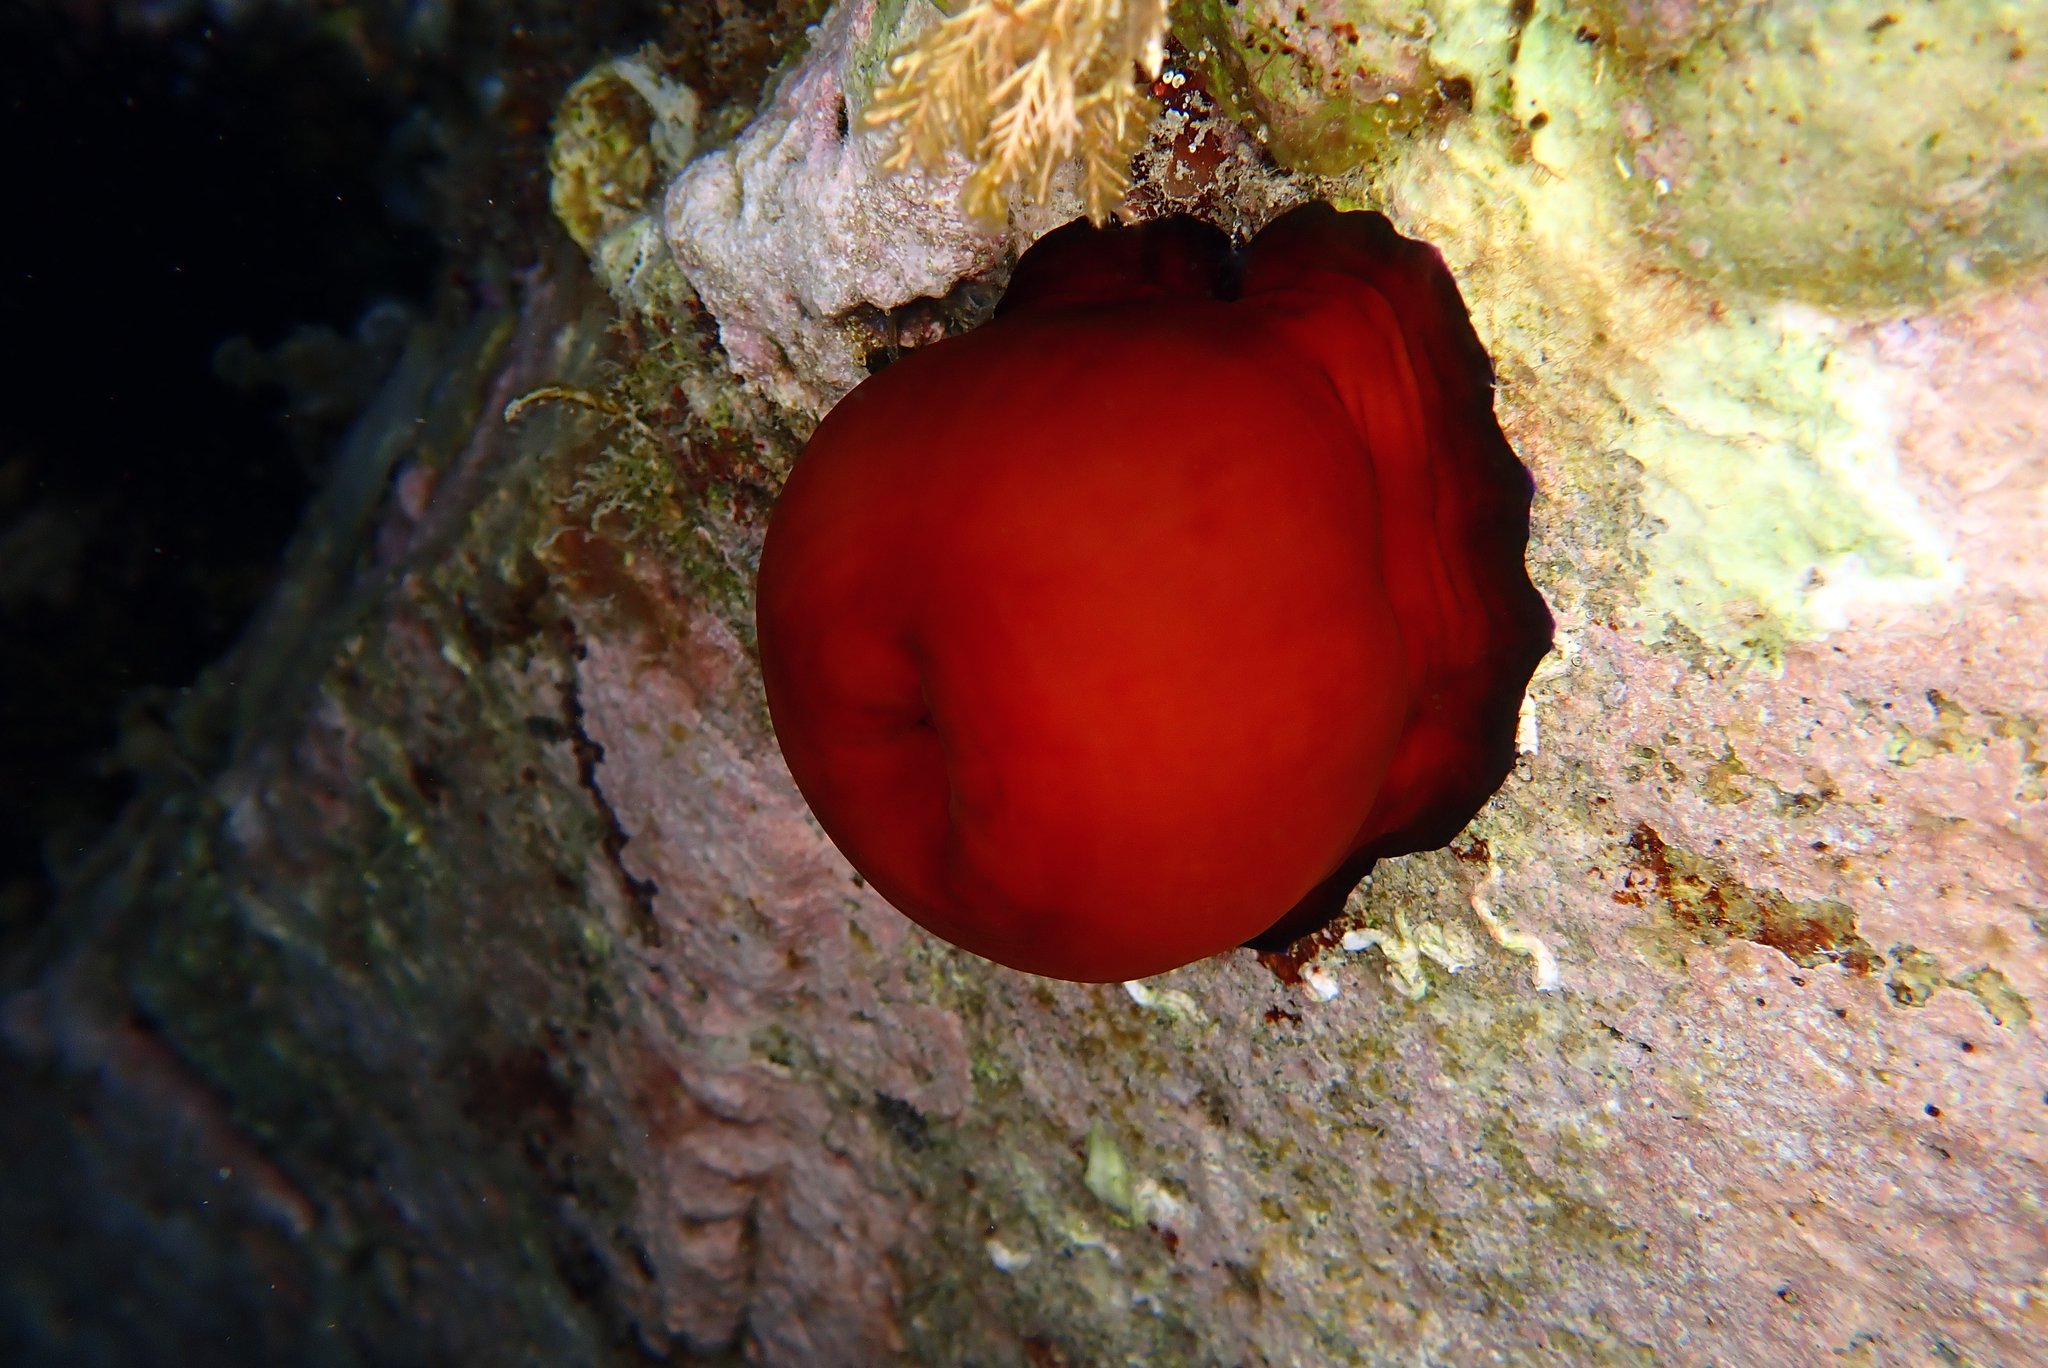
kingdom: Animalia
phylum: Cnidaria
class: Anthozoa
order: Actiniaria
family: Actiniidae
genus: Actinia
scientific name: Actinia mediterranea
